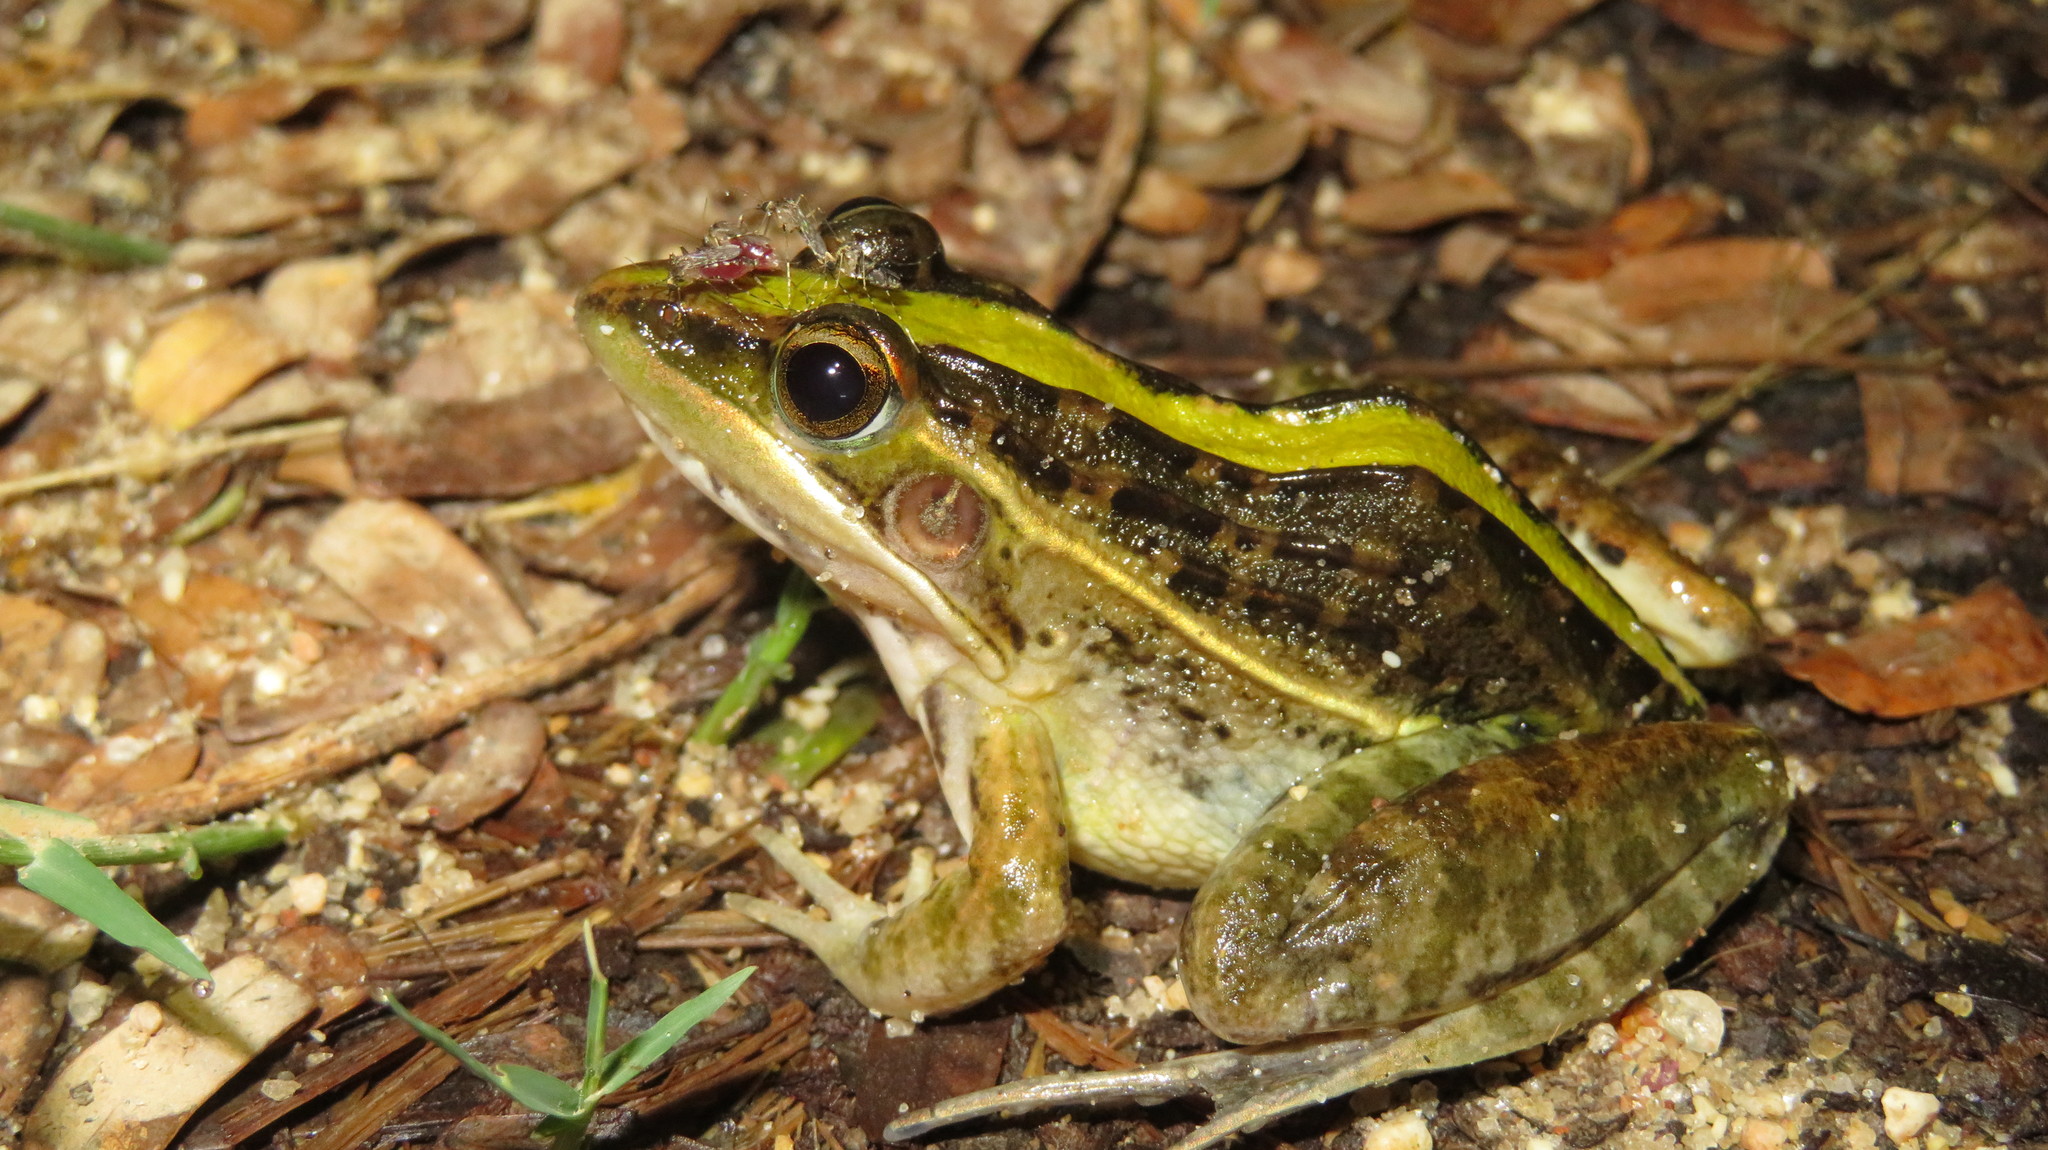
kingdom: Animalia
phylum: Chordata
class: Amphibia
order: Anura
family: Ptychadenidae
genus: Ptychadena
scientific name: Ptychadena nilotica
